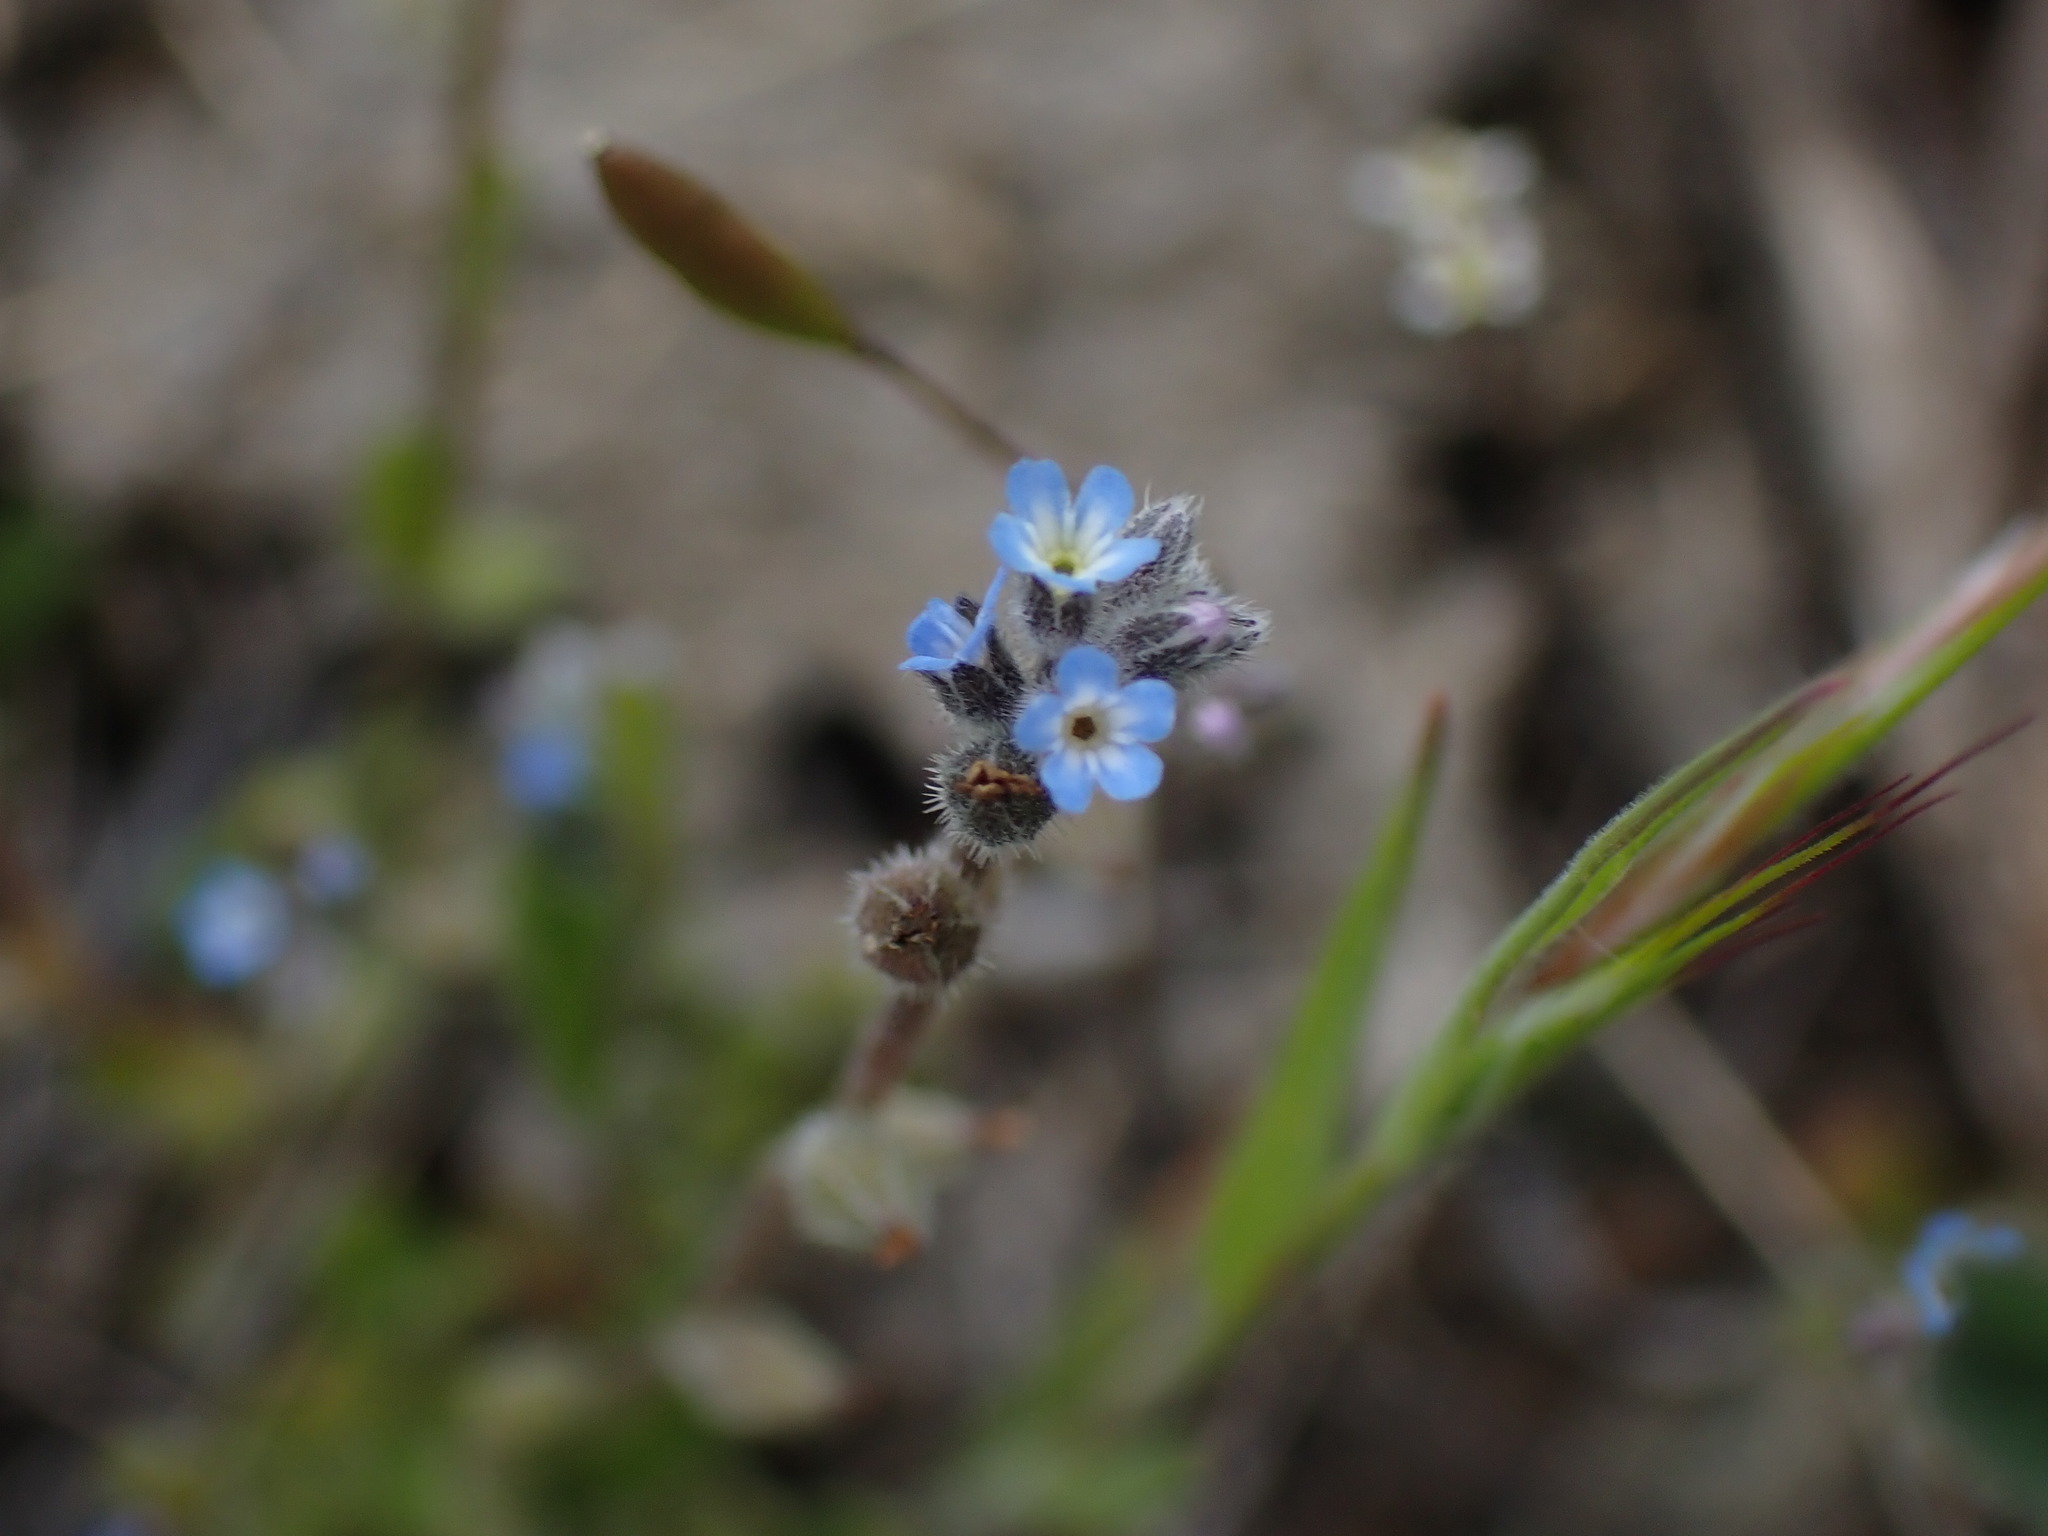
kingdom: Plantae
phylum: Tracheophyta
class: Magnoliopsida
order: Boraginales
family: Boraginaceae
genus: Myosotis
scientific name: Myosotis stricta
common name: Strict forget-me-not
